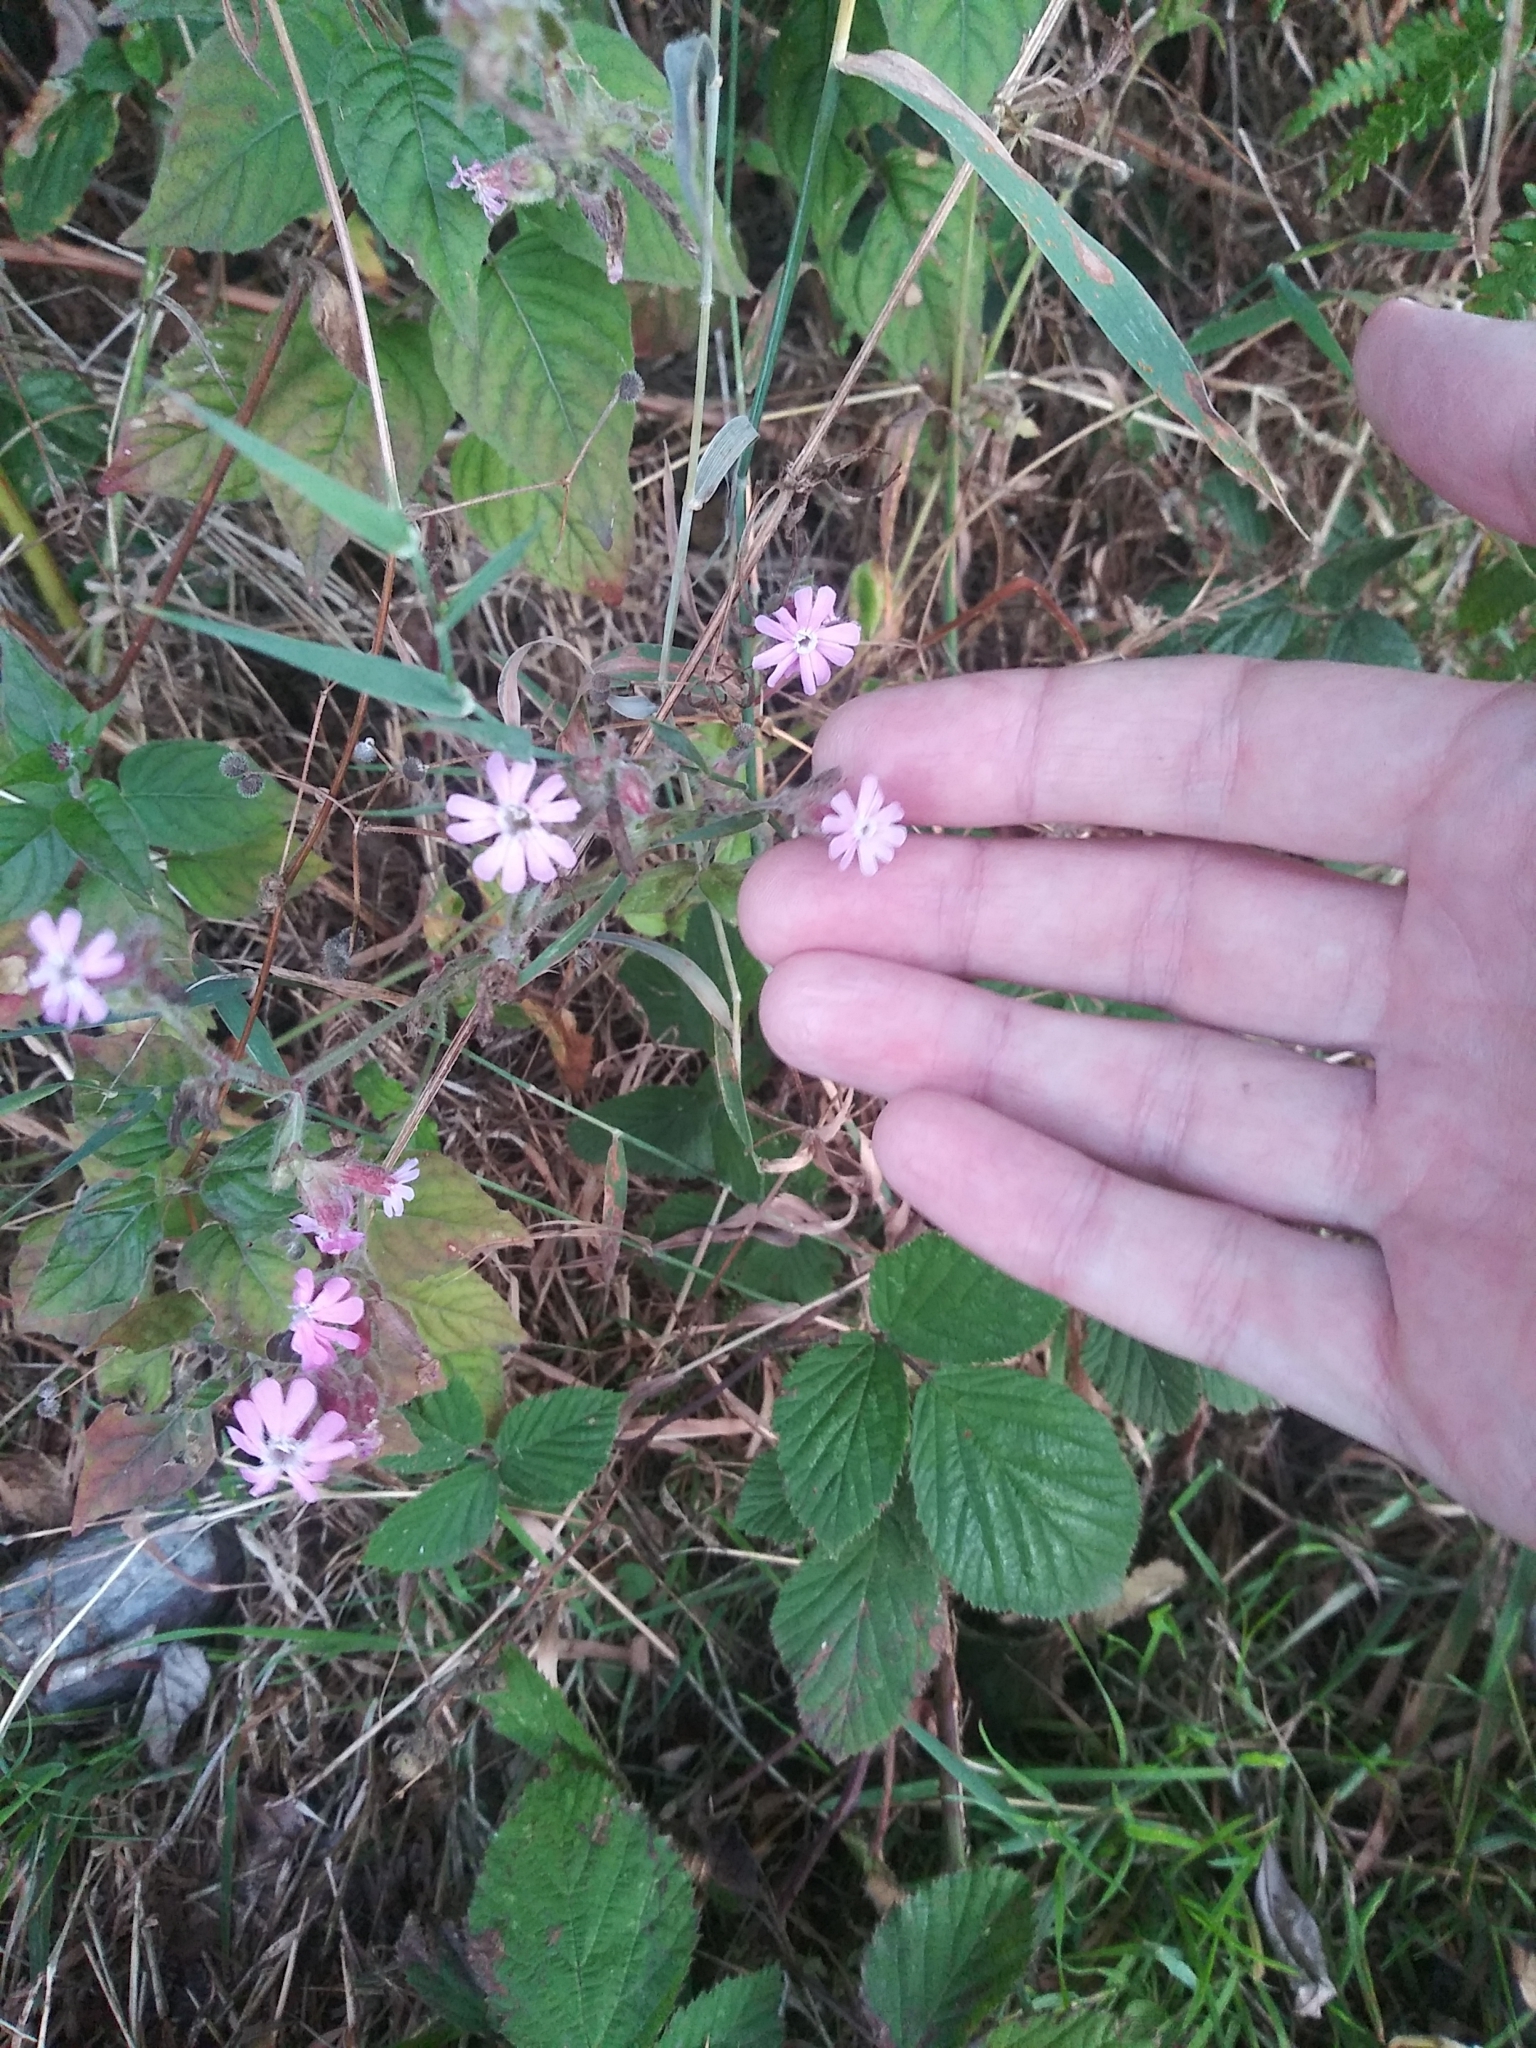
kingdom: Plantae
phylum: Tracheophyta
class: Magnoliopsida
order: Caryophyllales
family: Caryophyllaceae
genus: Silene
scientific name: Silene dioica
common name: Red campion
